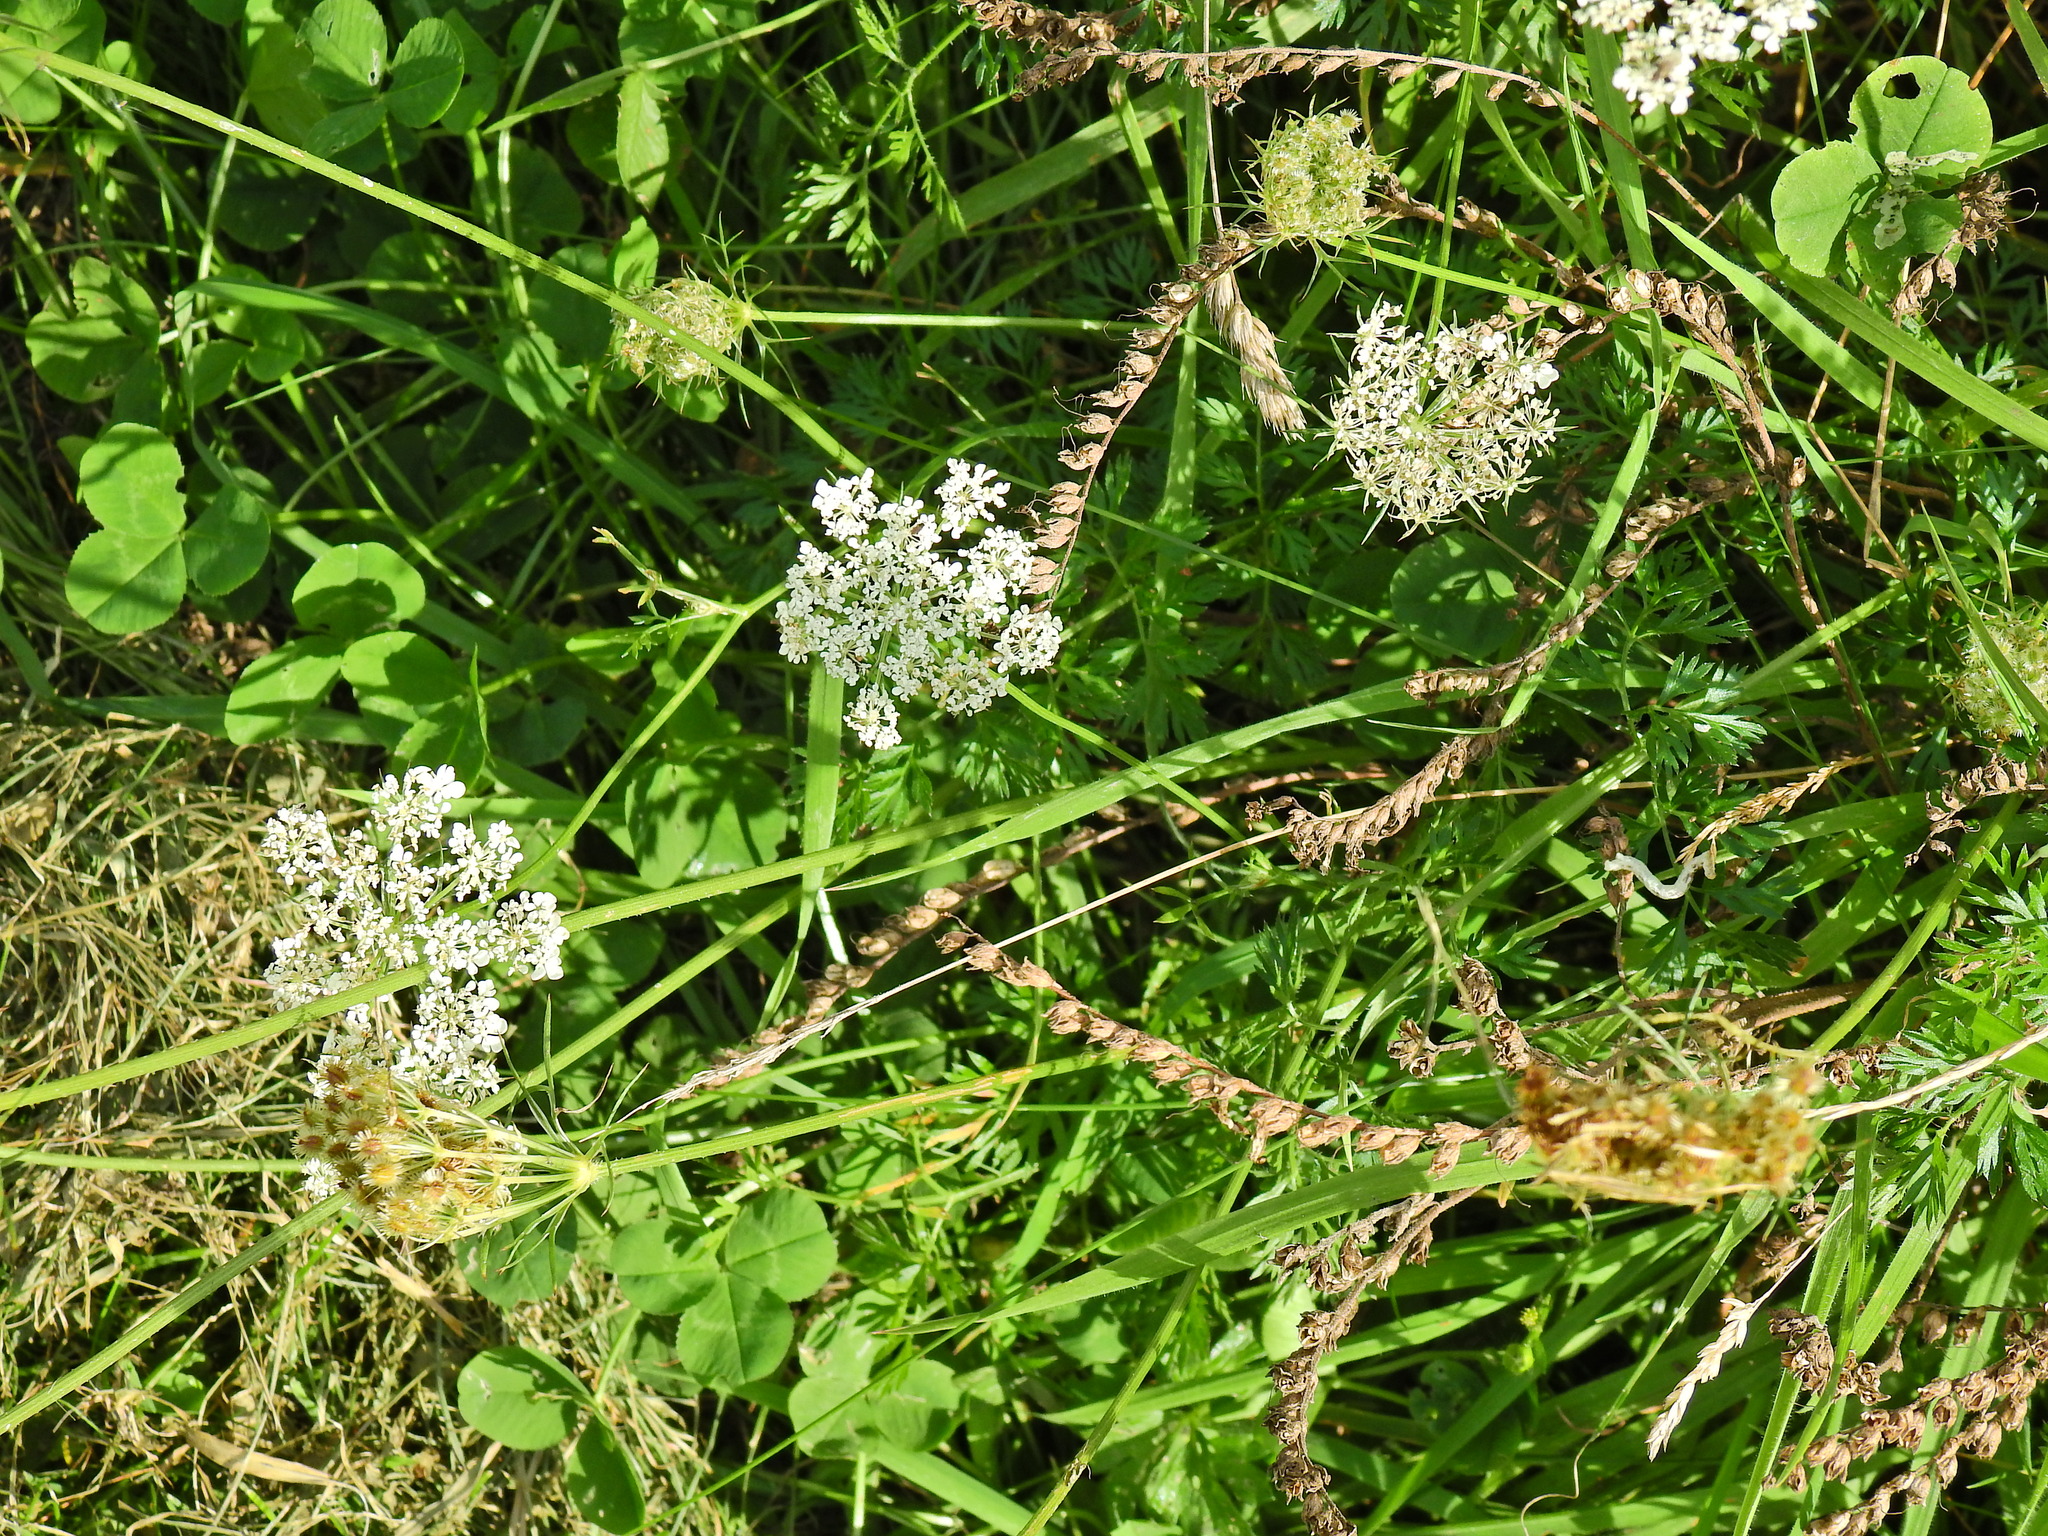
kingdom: Plantae
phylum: Tracheophyta
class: Magnoliopsida
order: Apiales
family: Apiaceae
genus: Daucus
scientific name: Daucus carota
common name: Wild carrot
